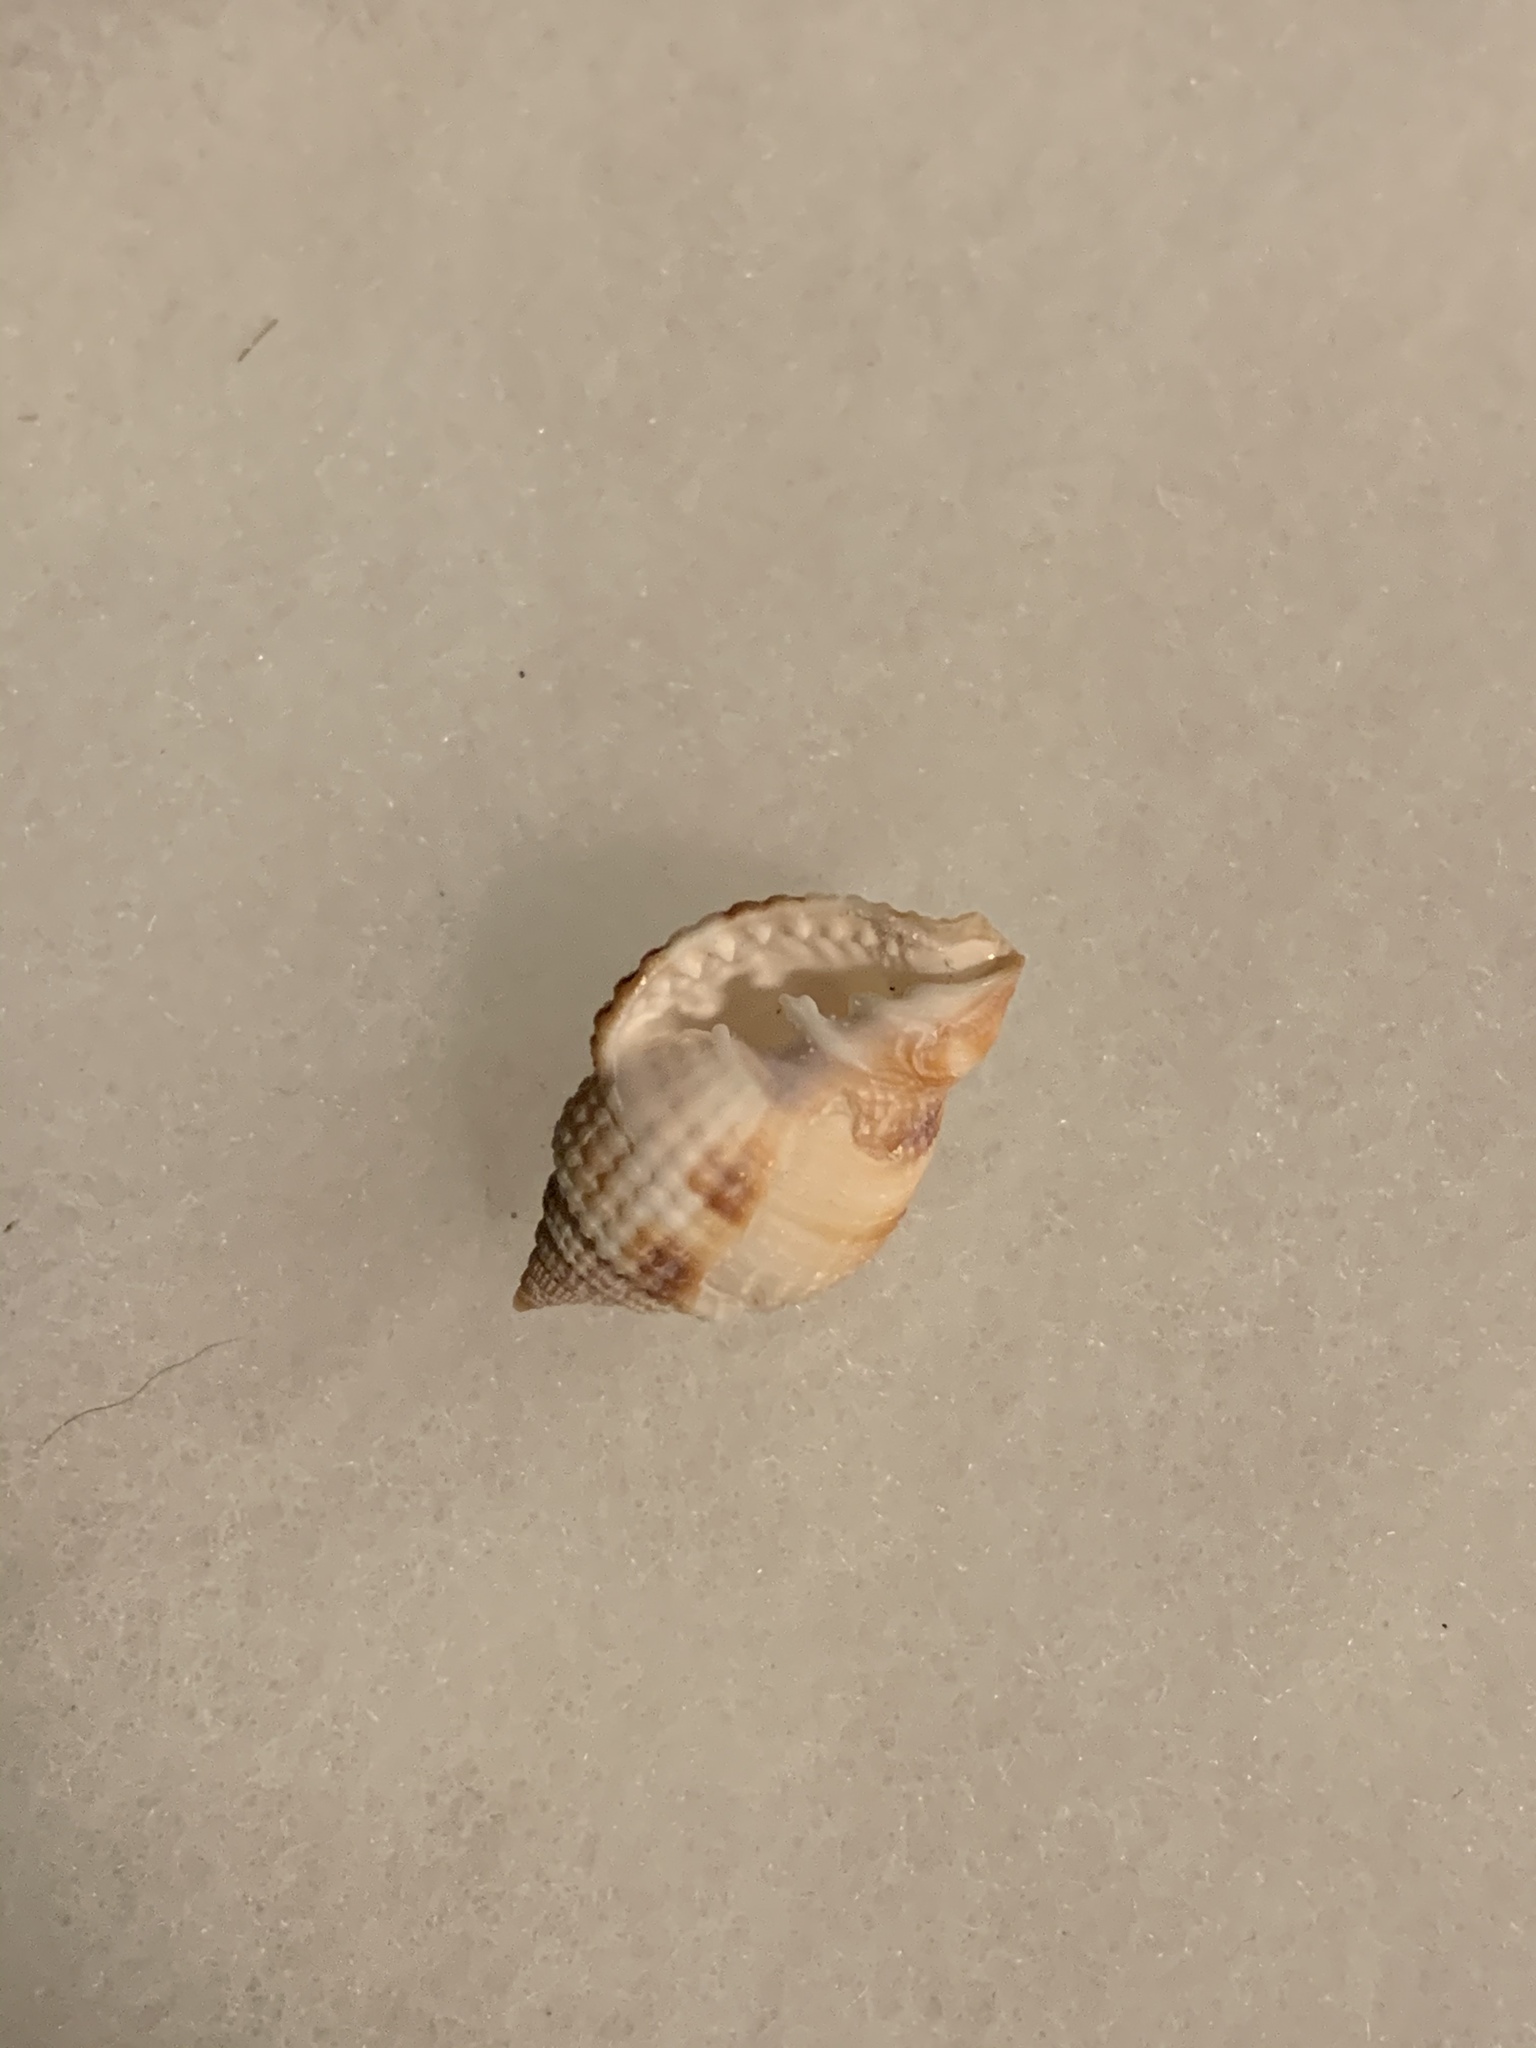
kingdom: Animalia
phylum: Mollusca
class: Gastropoda
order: Neogastropoda
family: Cancellariidae
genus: Cancellaria
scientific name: Cancellaria reticulata
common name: Common nutmeg
